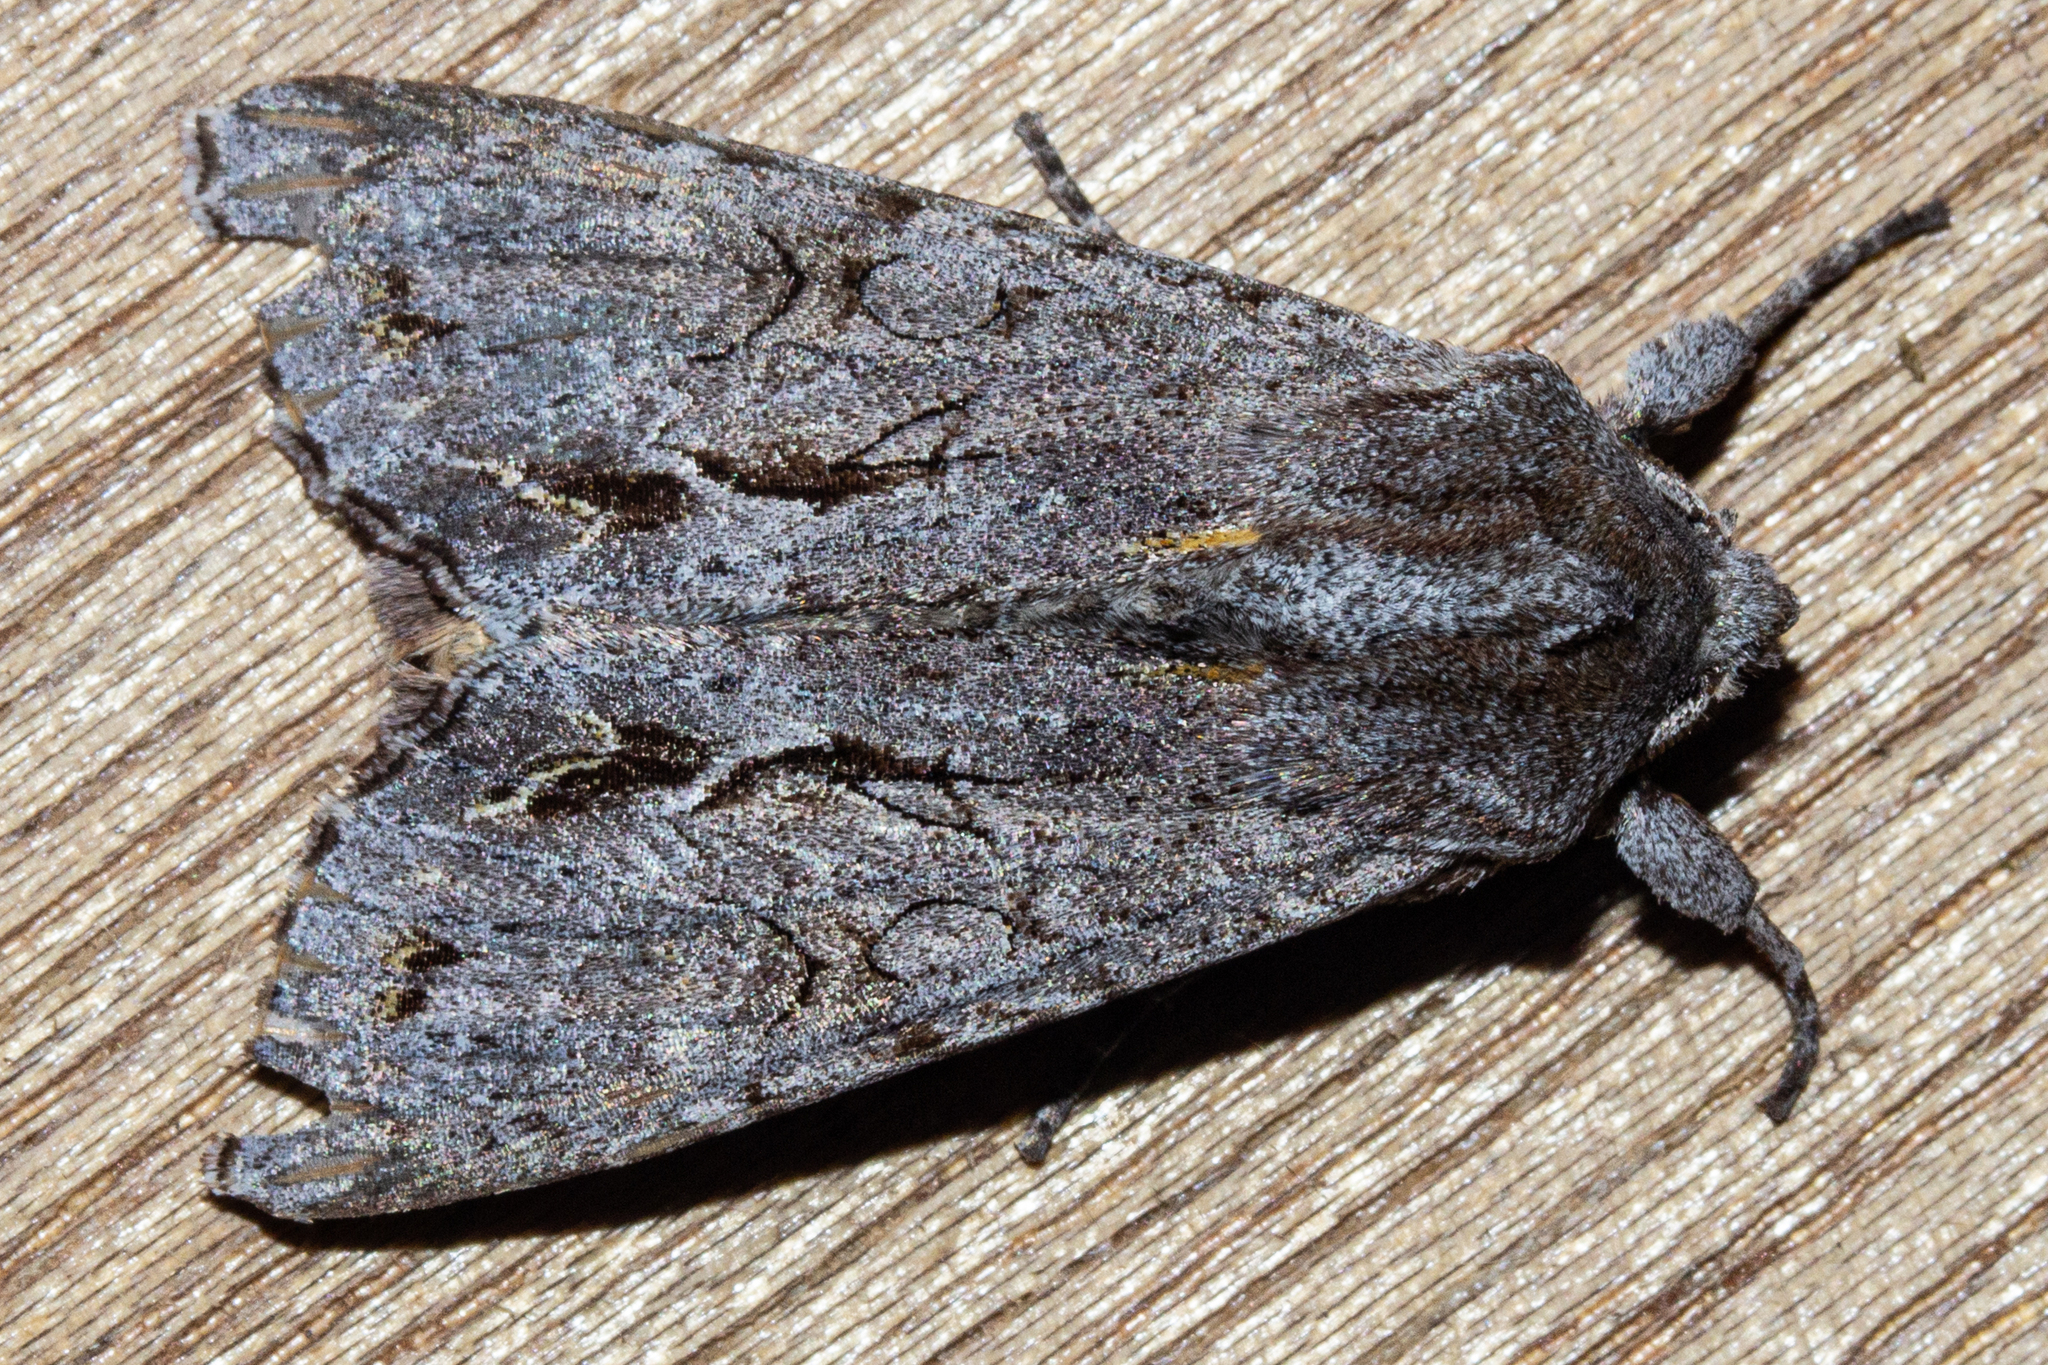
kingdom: Animalia
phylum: Arthropoda
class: Insecta
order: Lepidoptera
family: Noctuidae
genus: Ichneutica
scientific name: Ichneutica
